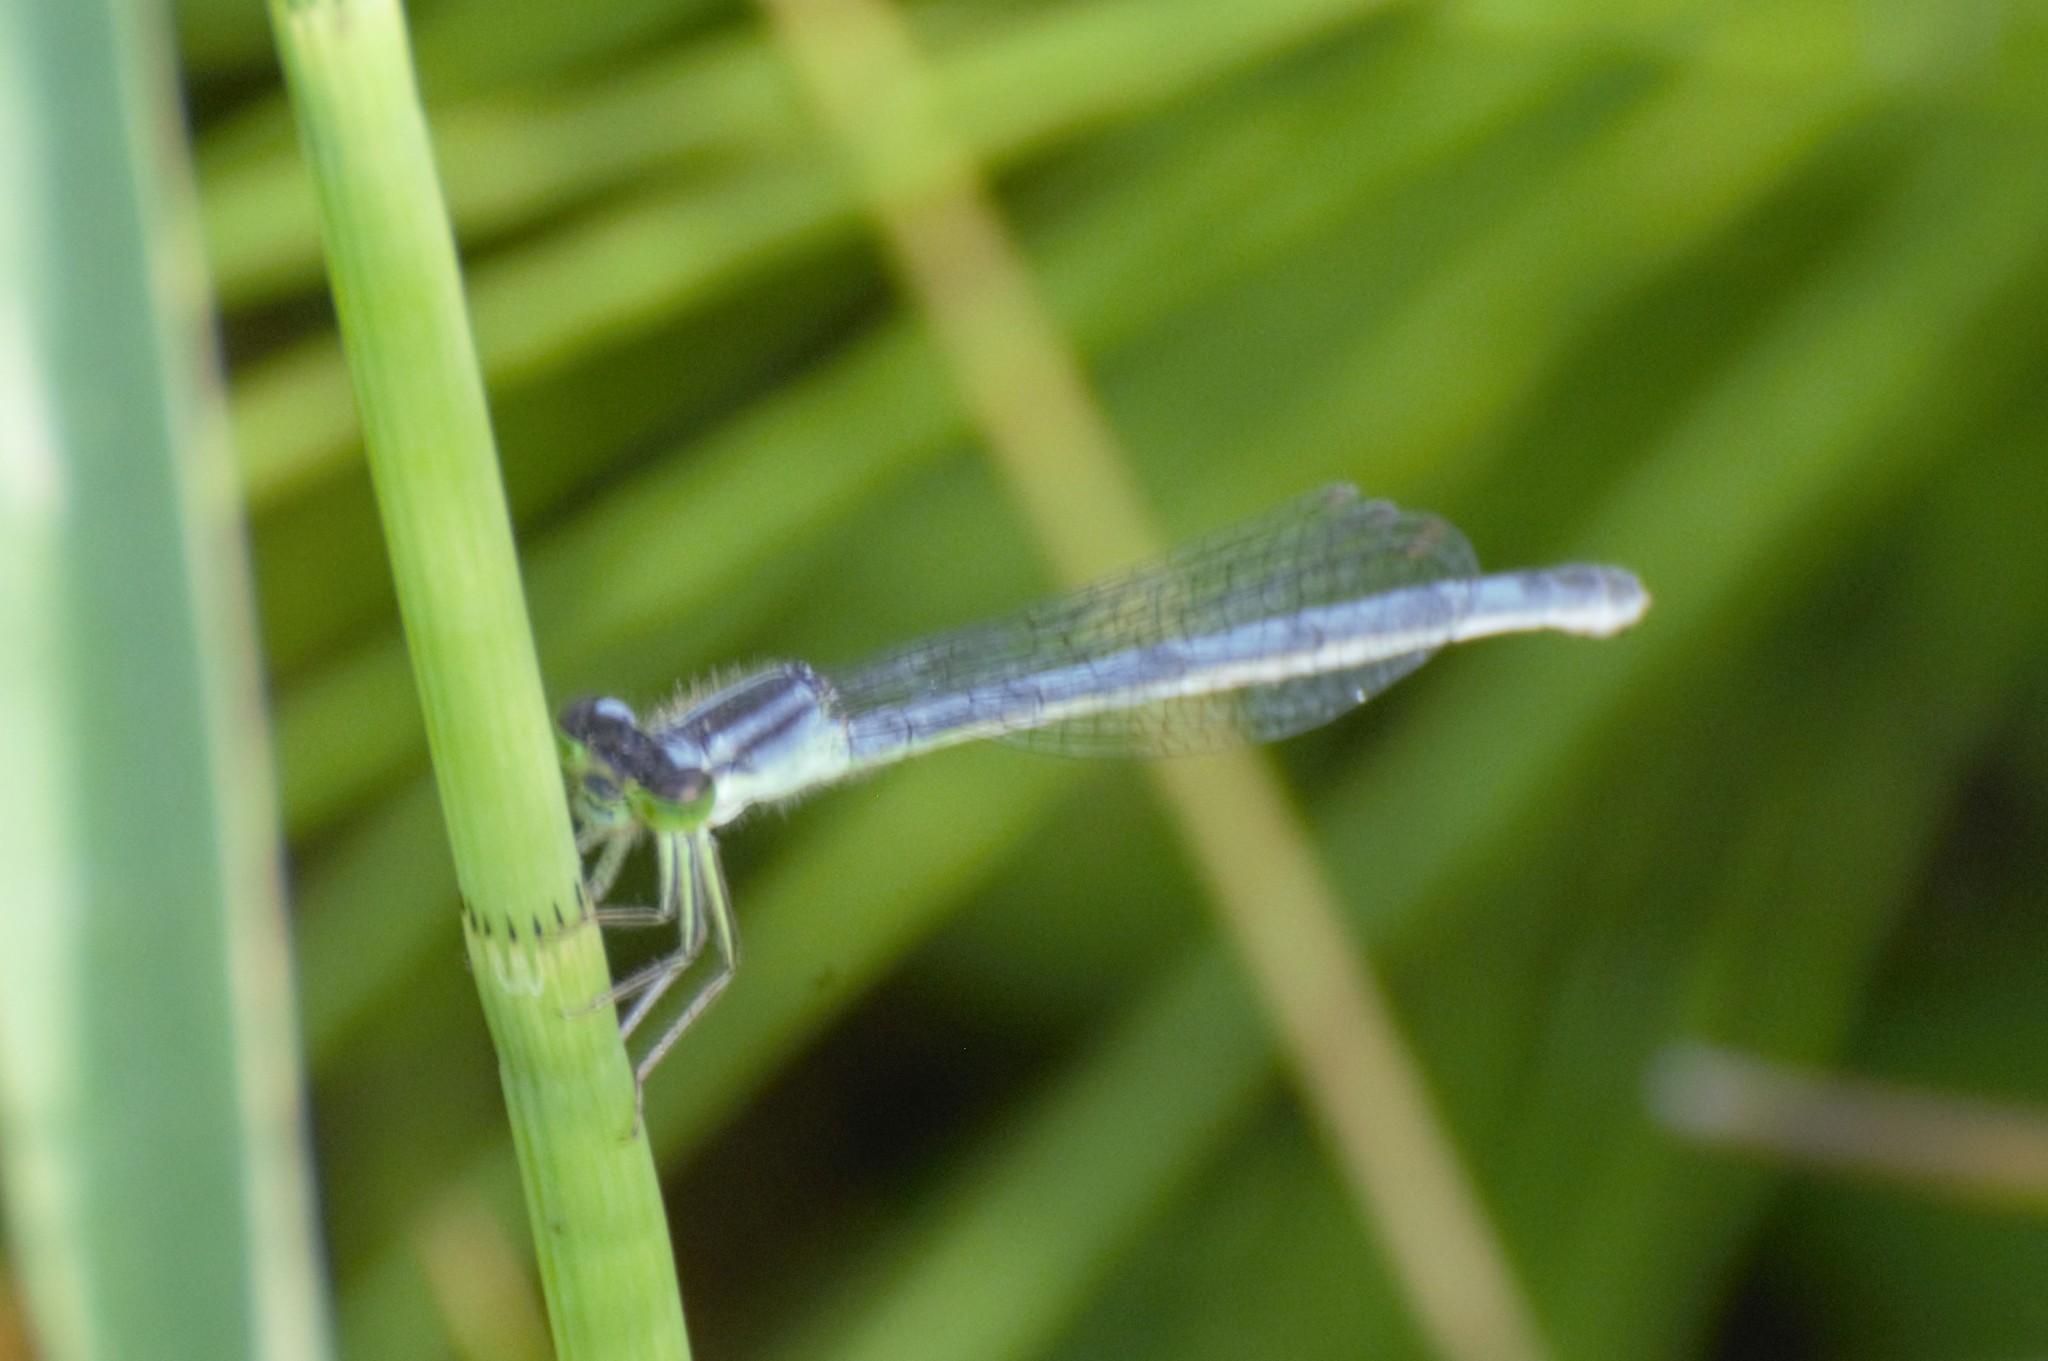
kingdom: Animalia
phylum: Arthropoda
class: Insecta
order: Odonata
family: Coenagrionidae
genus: Ischnura
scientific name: Ischnura verticalis
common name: Eastern forktail
